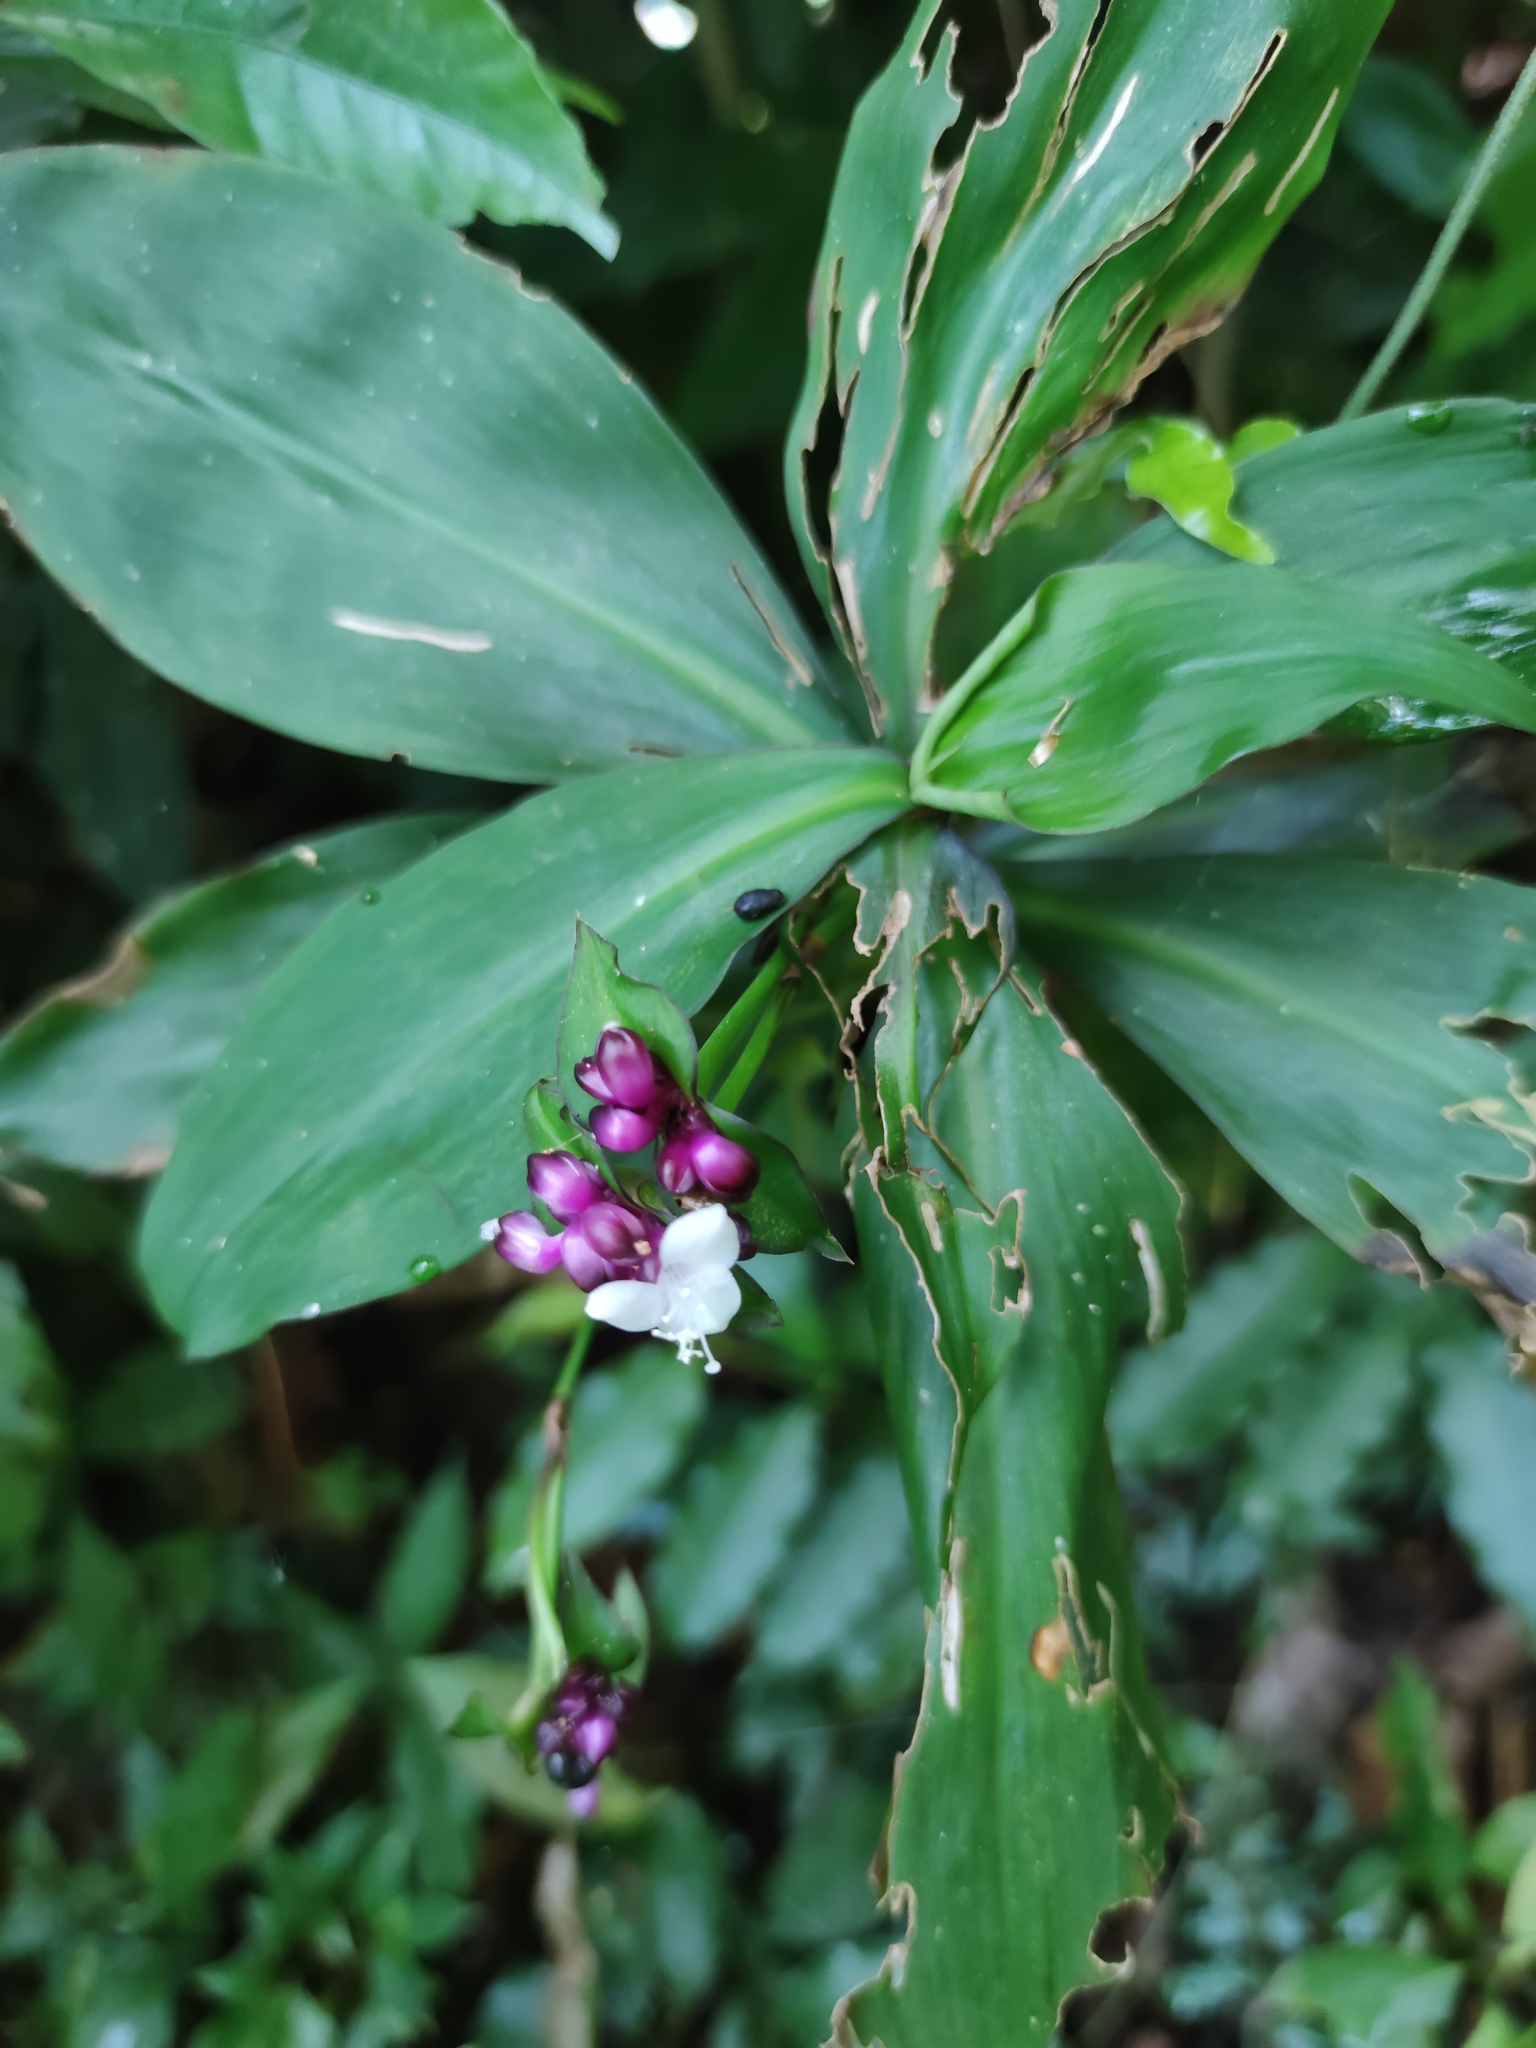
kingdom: Plantae
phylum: Tracheophyta
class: Liliopsida
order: Commelinales
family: Commelinaceae
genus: Tradescantia
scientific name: Tradescantia zanonia
